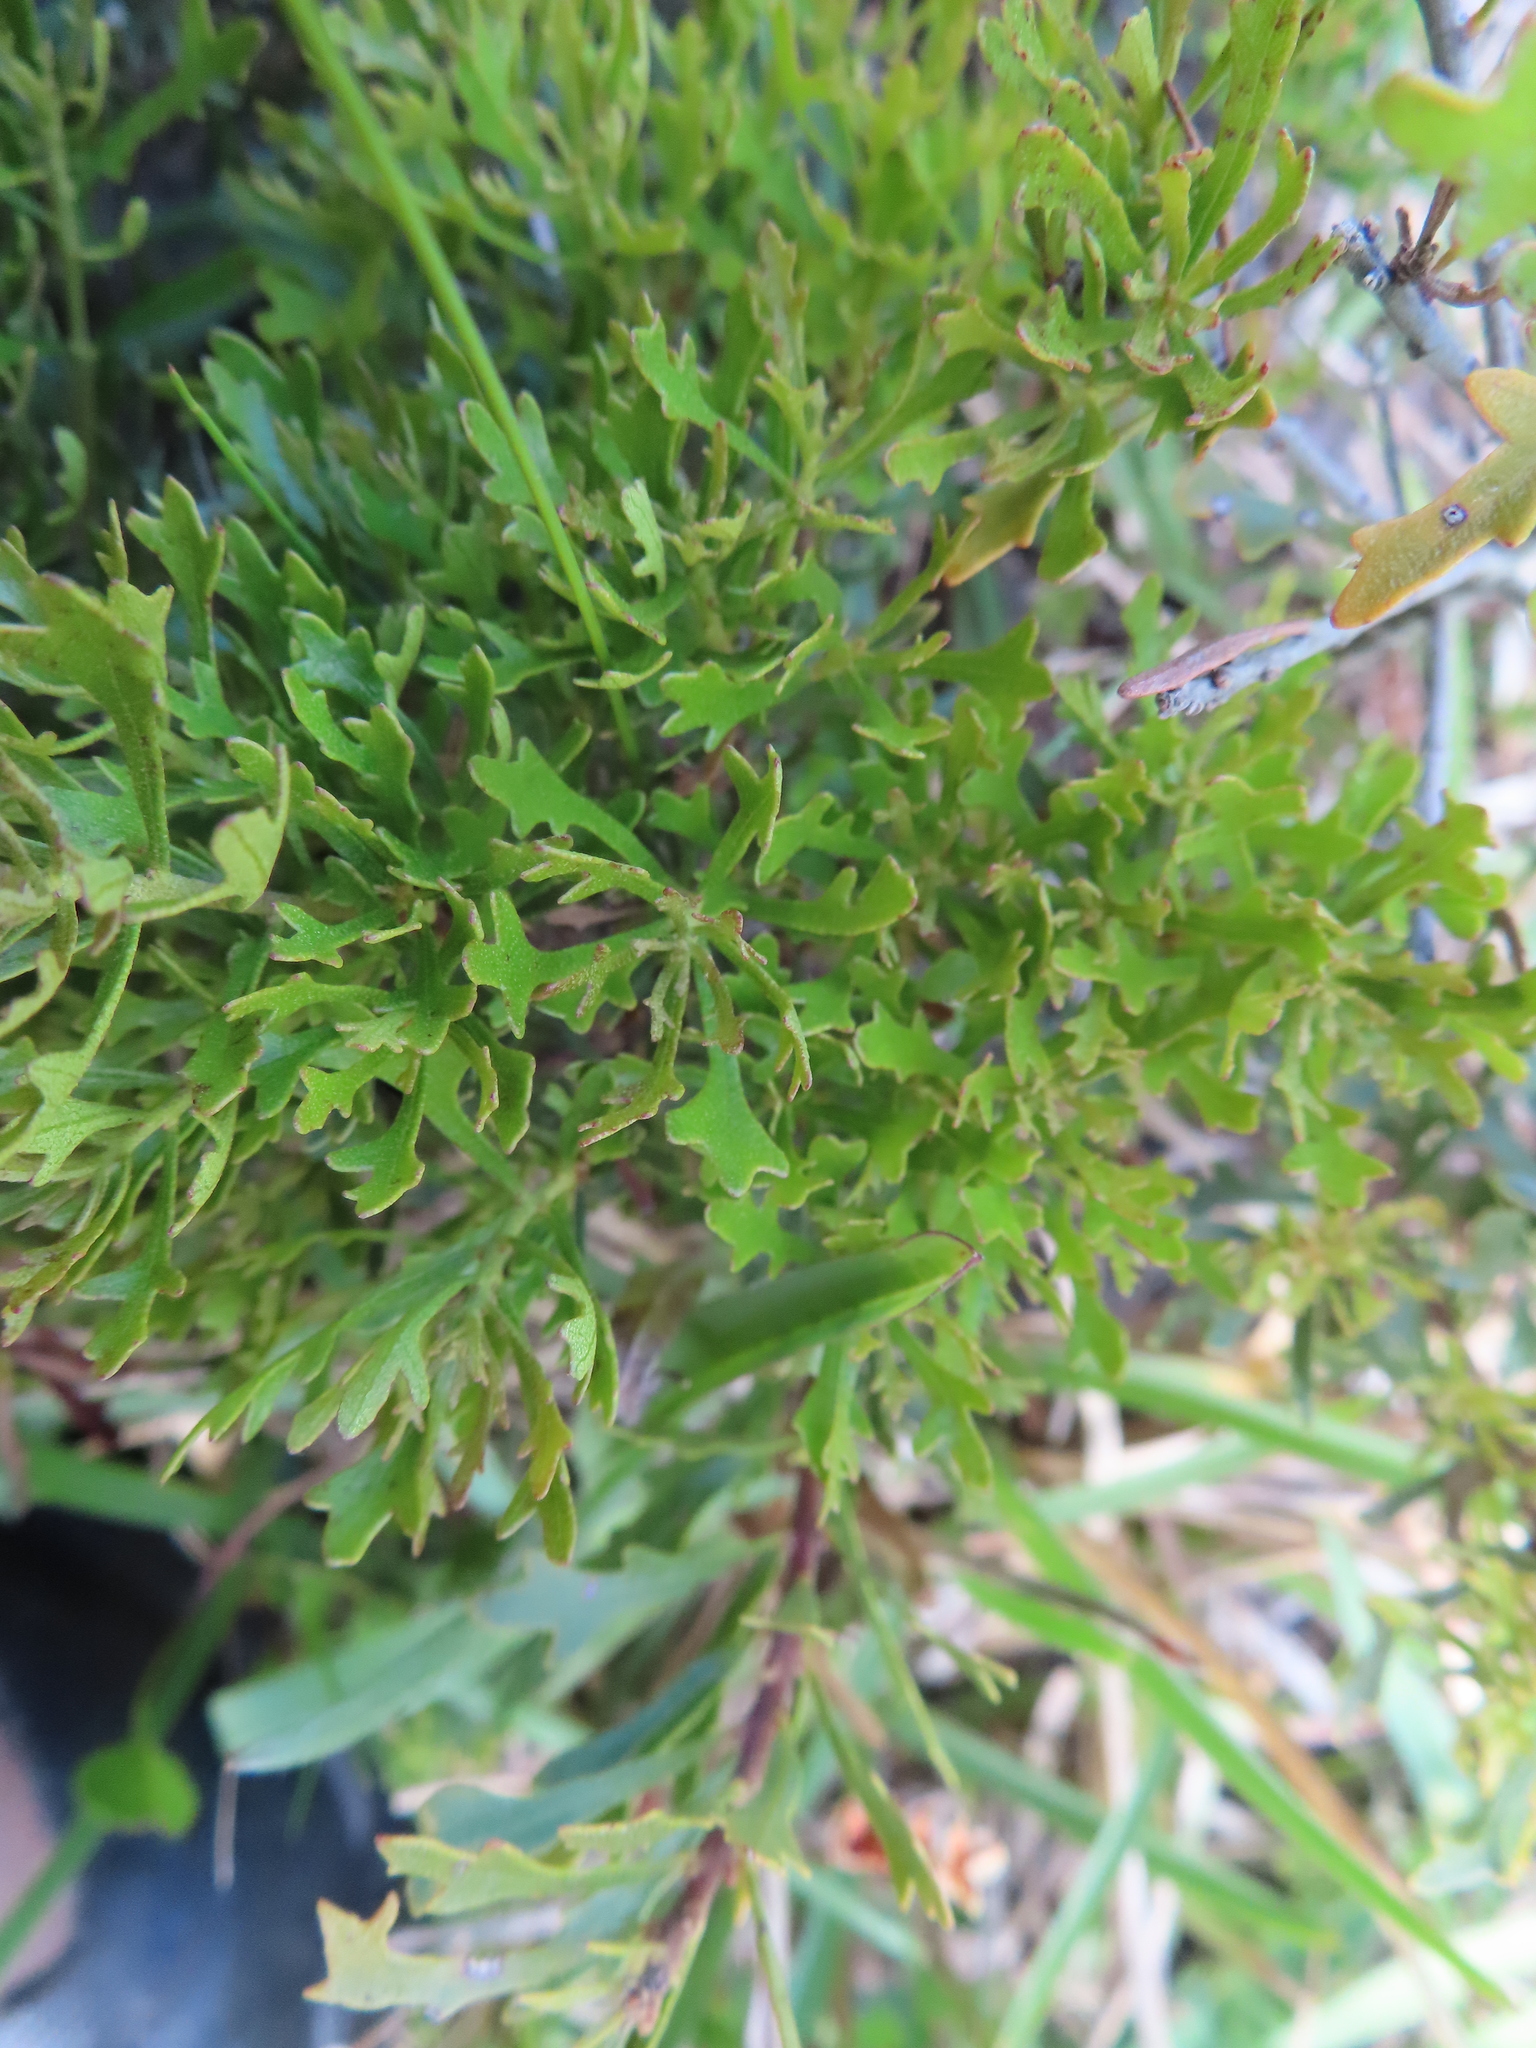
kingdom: Plantae
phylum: Tracheophyta
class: Magnoliopsida
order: Fagales
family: Myricaceae
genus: Morella
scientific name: Morella quercifolia
